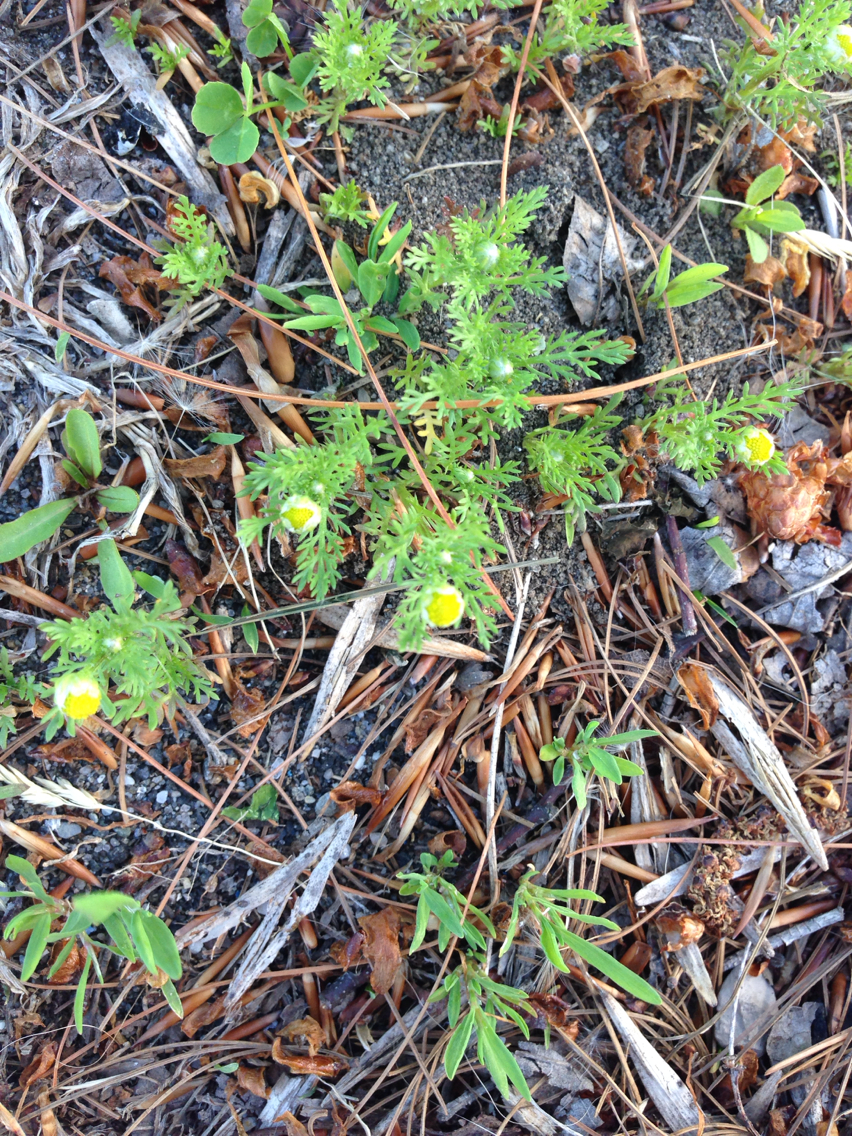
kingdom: Plantae
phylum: Tracheophyta
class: Magnoliopsida
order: Asterales
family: Asteraceae
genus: Matricaria
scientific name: Matricaria discoidea
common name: Disc mayweed
